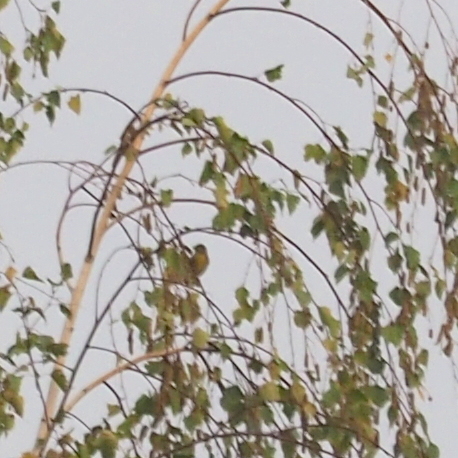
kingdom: Animalia
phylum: Chordata
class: Aves
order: Passeriformes
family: Fringillidae
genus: Serinus
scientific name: Serinus serinus
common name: European serin
